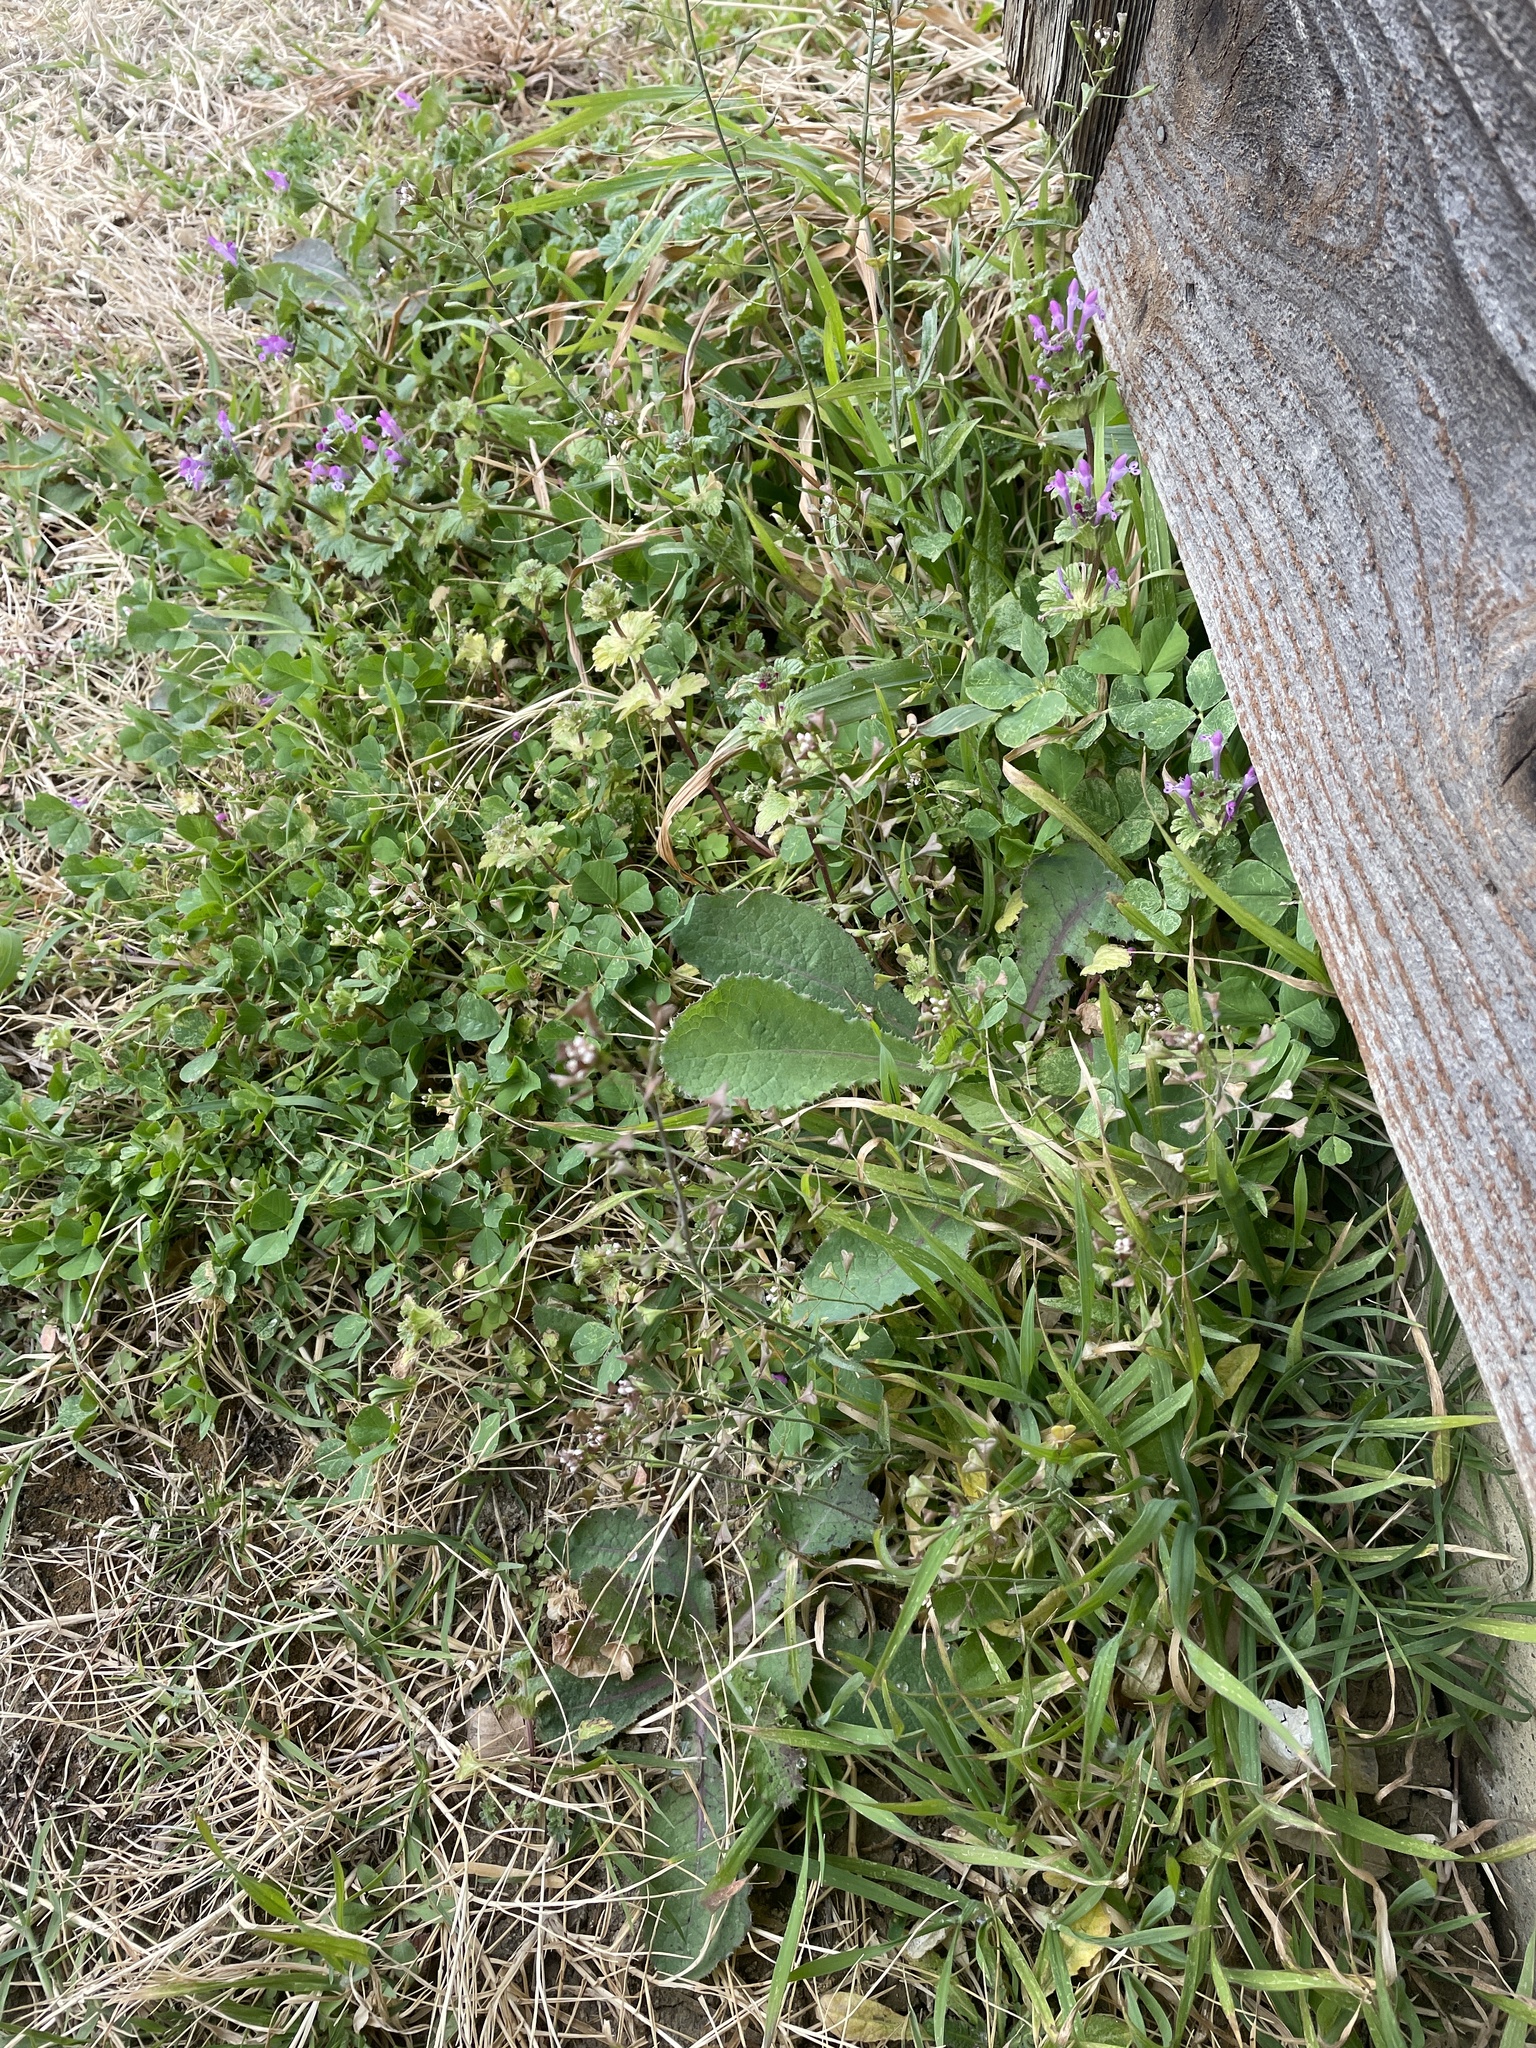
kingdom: Plantae
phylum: Tracheophyta
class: Magnoliopsida
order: Brassicales
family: Brassicaceae
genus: Capsella
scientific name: Capsella bursa-pastoris
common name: Shepherd's purse
